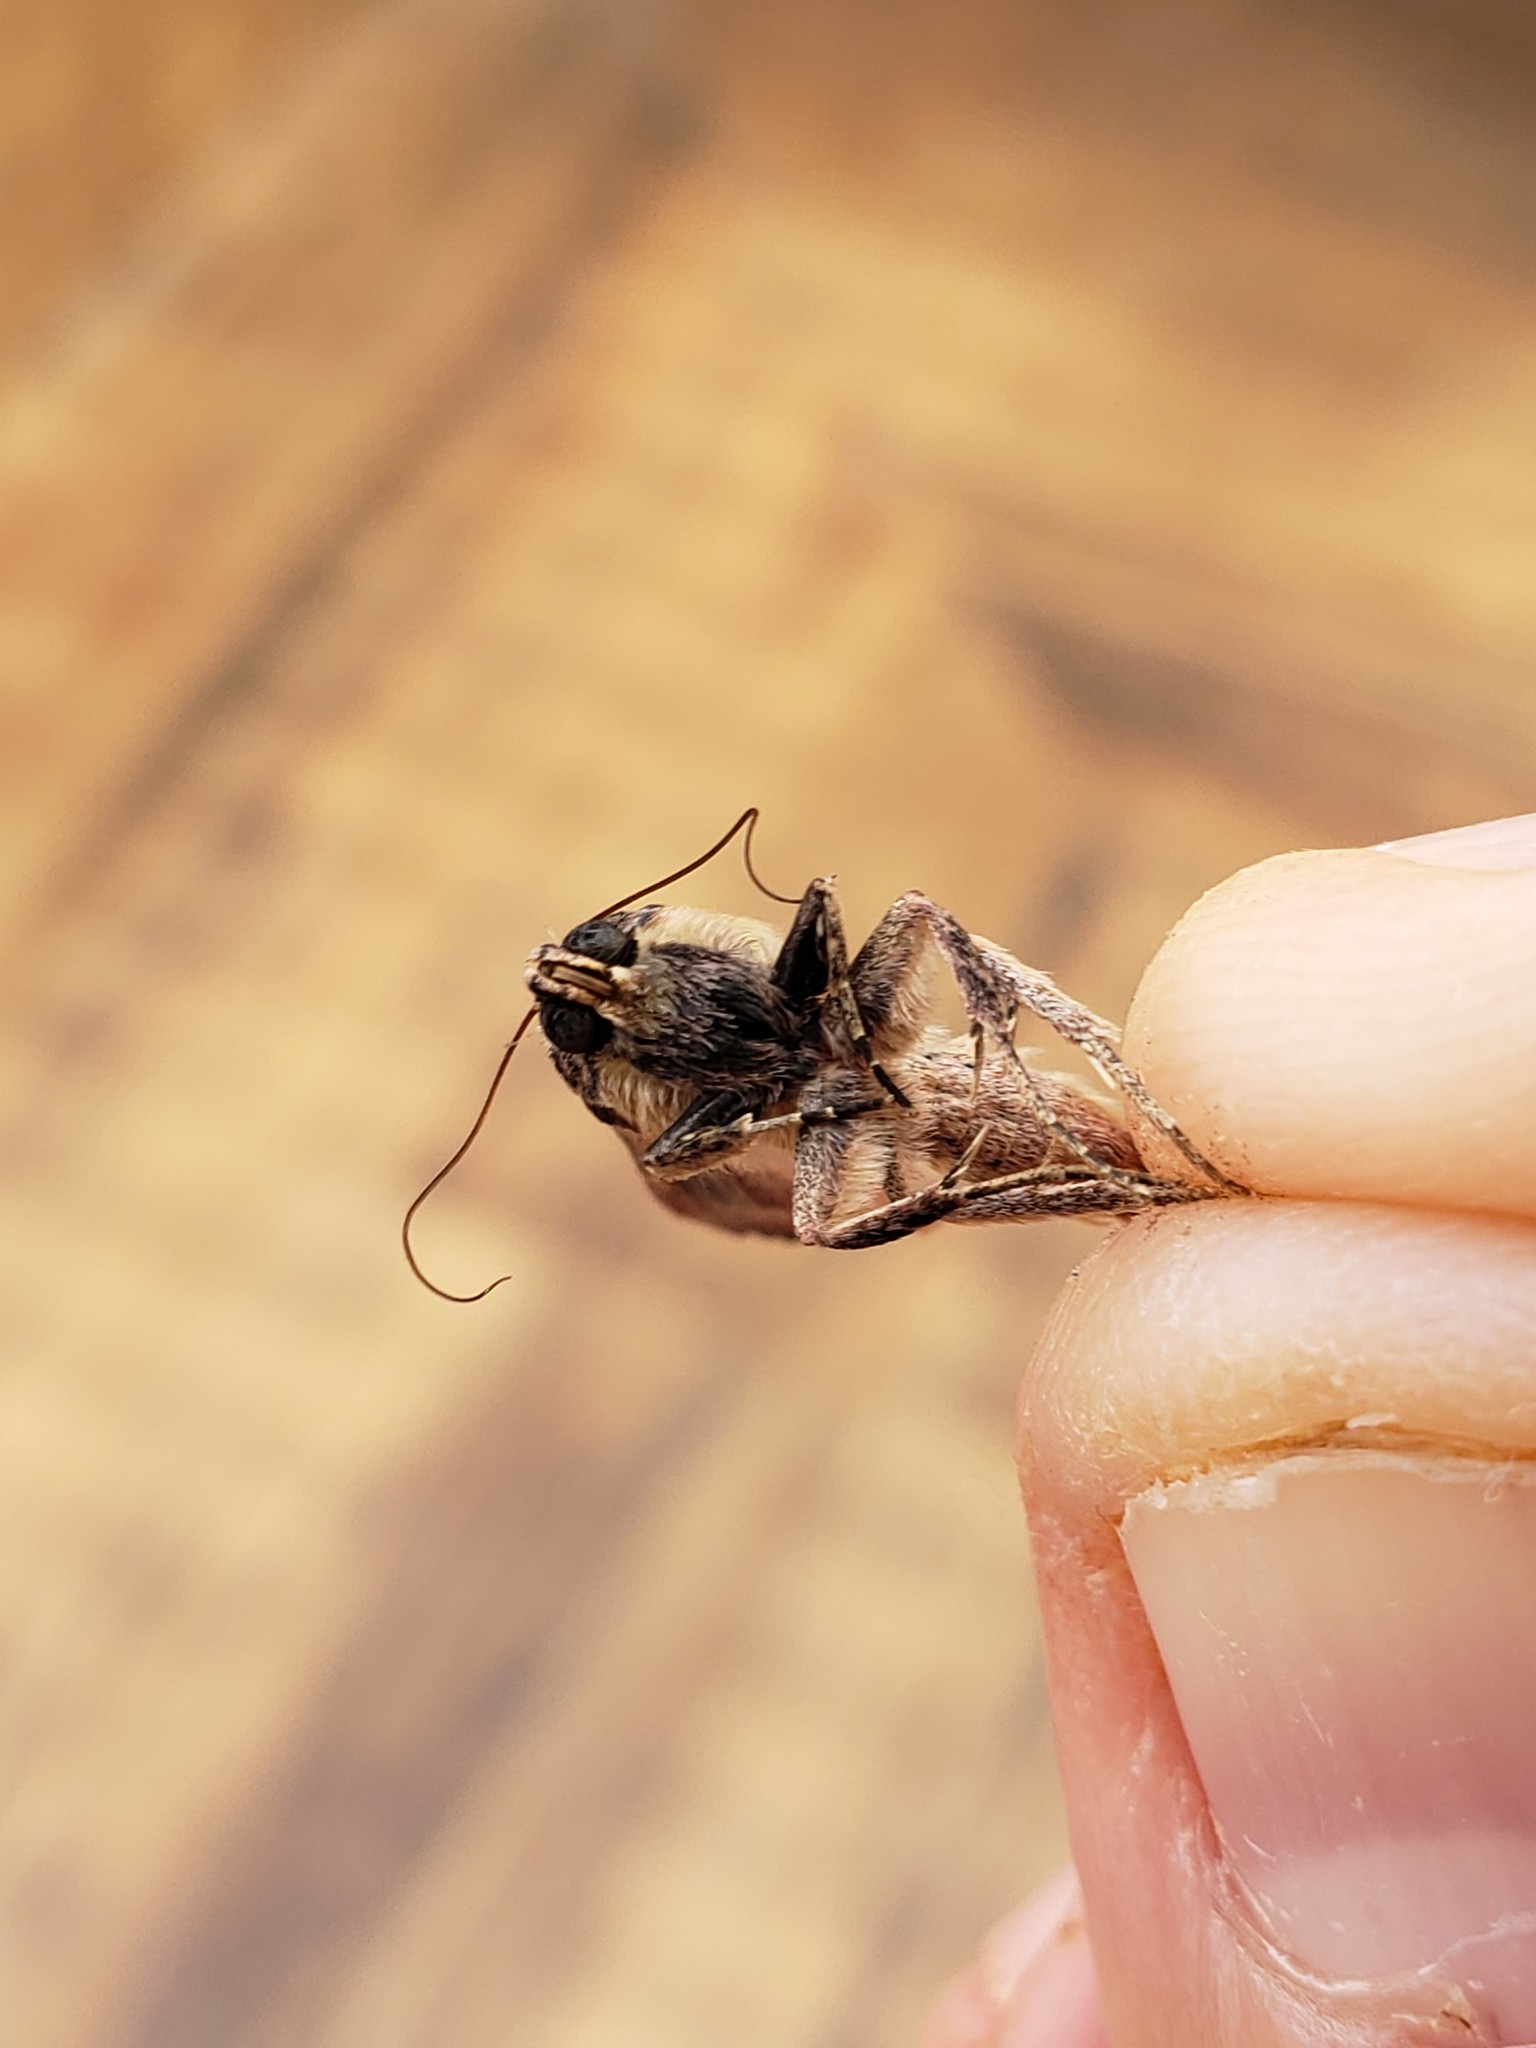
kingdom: Animalia
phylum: Arthropoda
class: Insecta
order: Lepidoptera
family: Noctuidae
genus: Spodoptera
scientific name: Spodoptera frugiperda
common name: Fall armyworm
